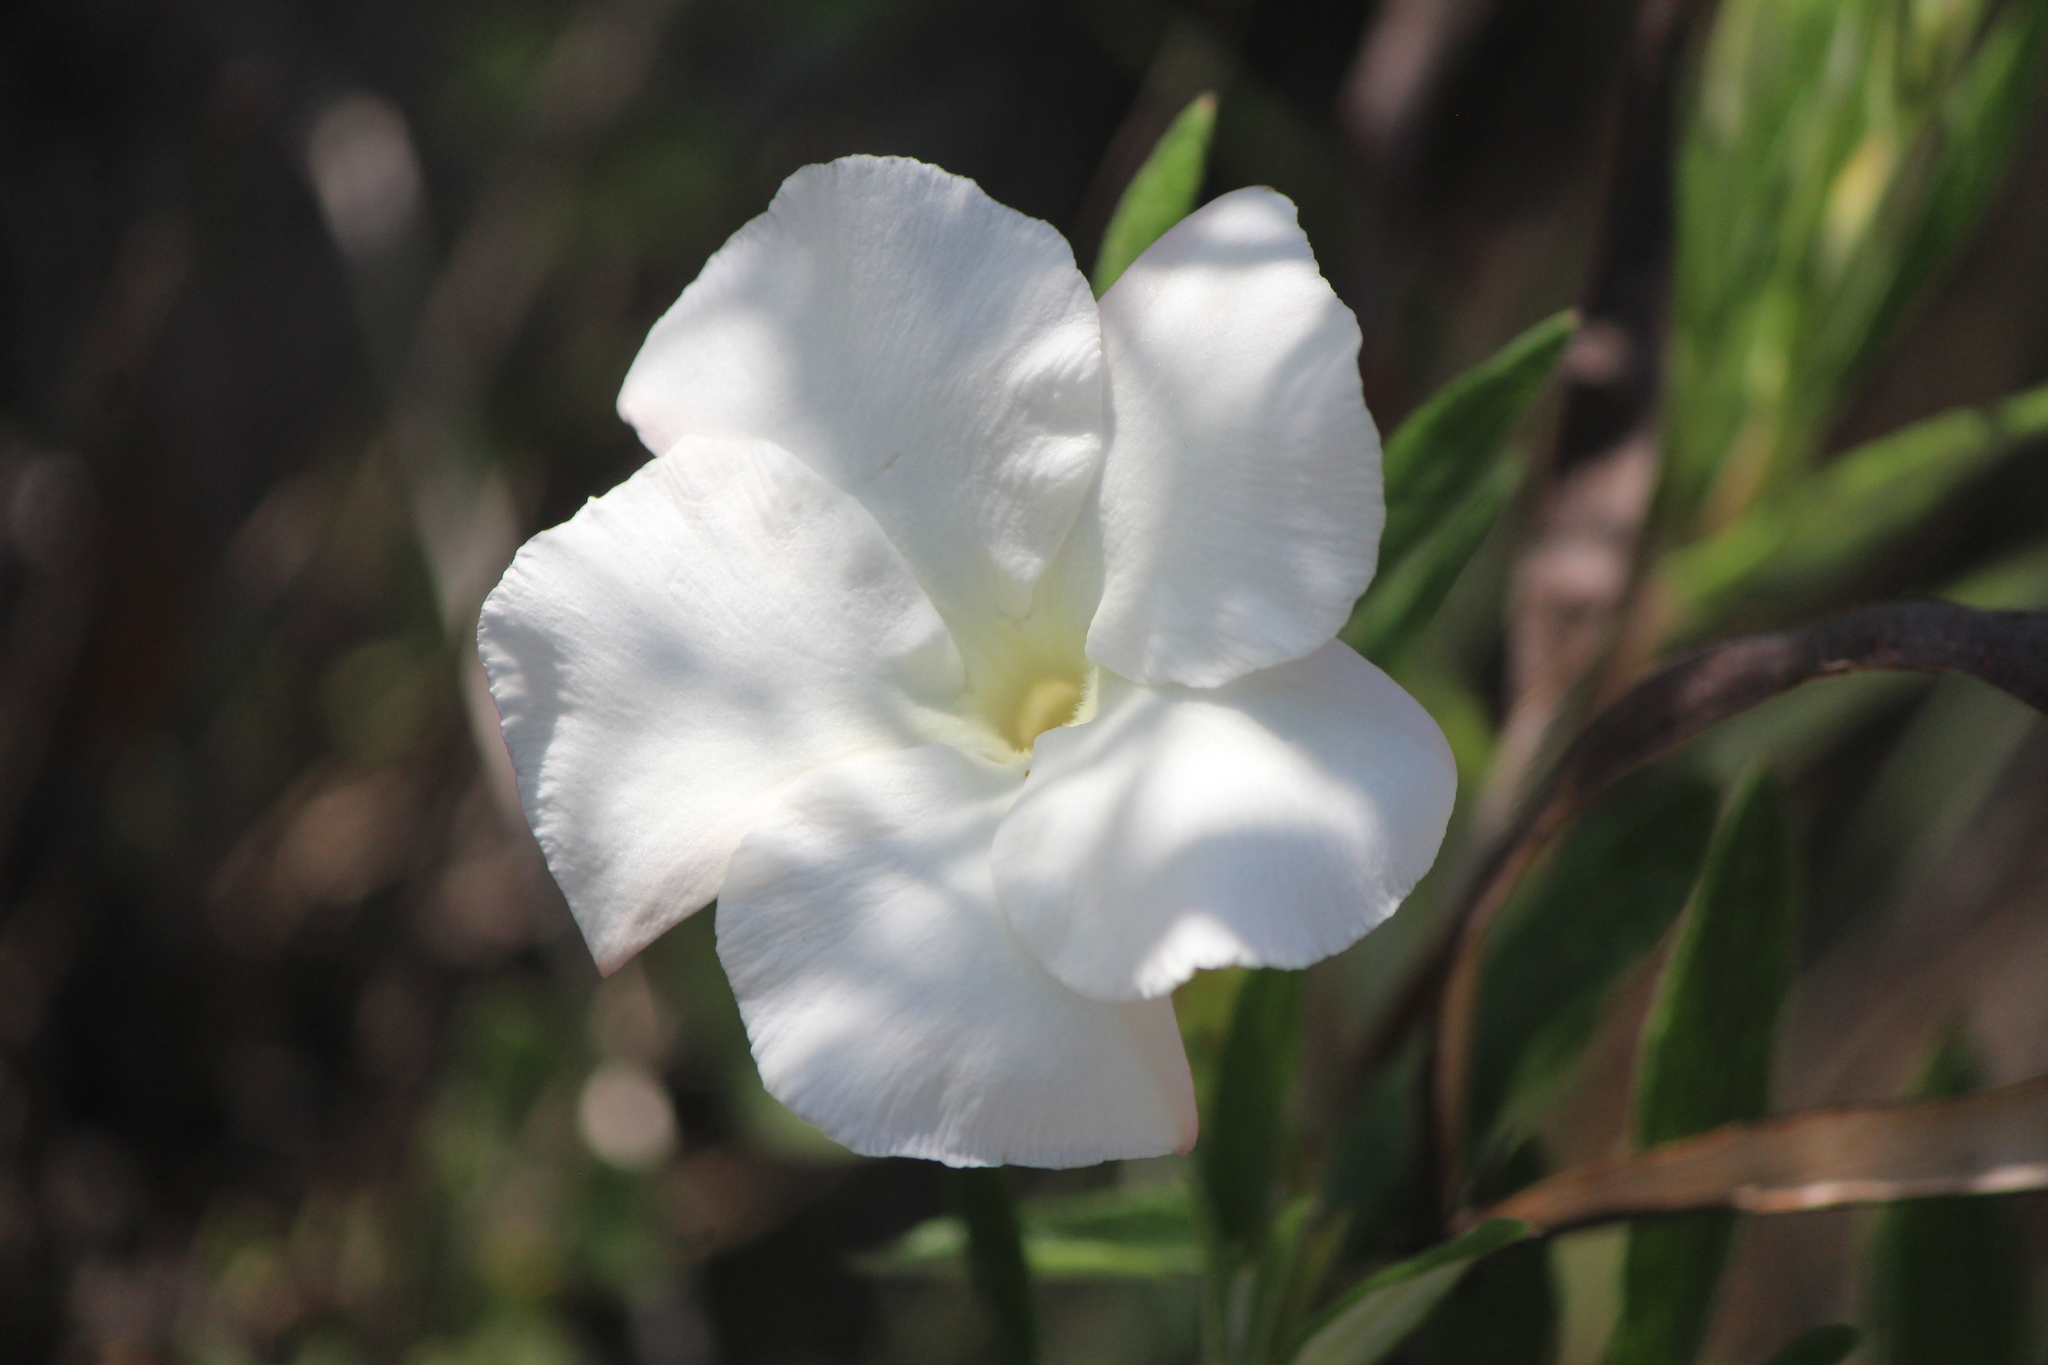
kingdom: Plantae
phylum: Tracheophyta
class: Magnoliopsida
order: Gentianales
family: Apocynaceae
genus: Mandevilla
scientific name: Mandevilla hypoleuca
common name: Davis mountain rocktrumpet
